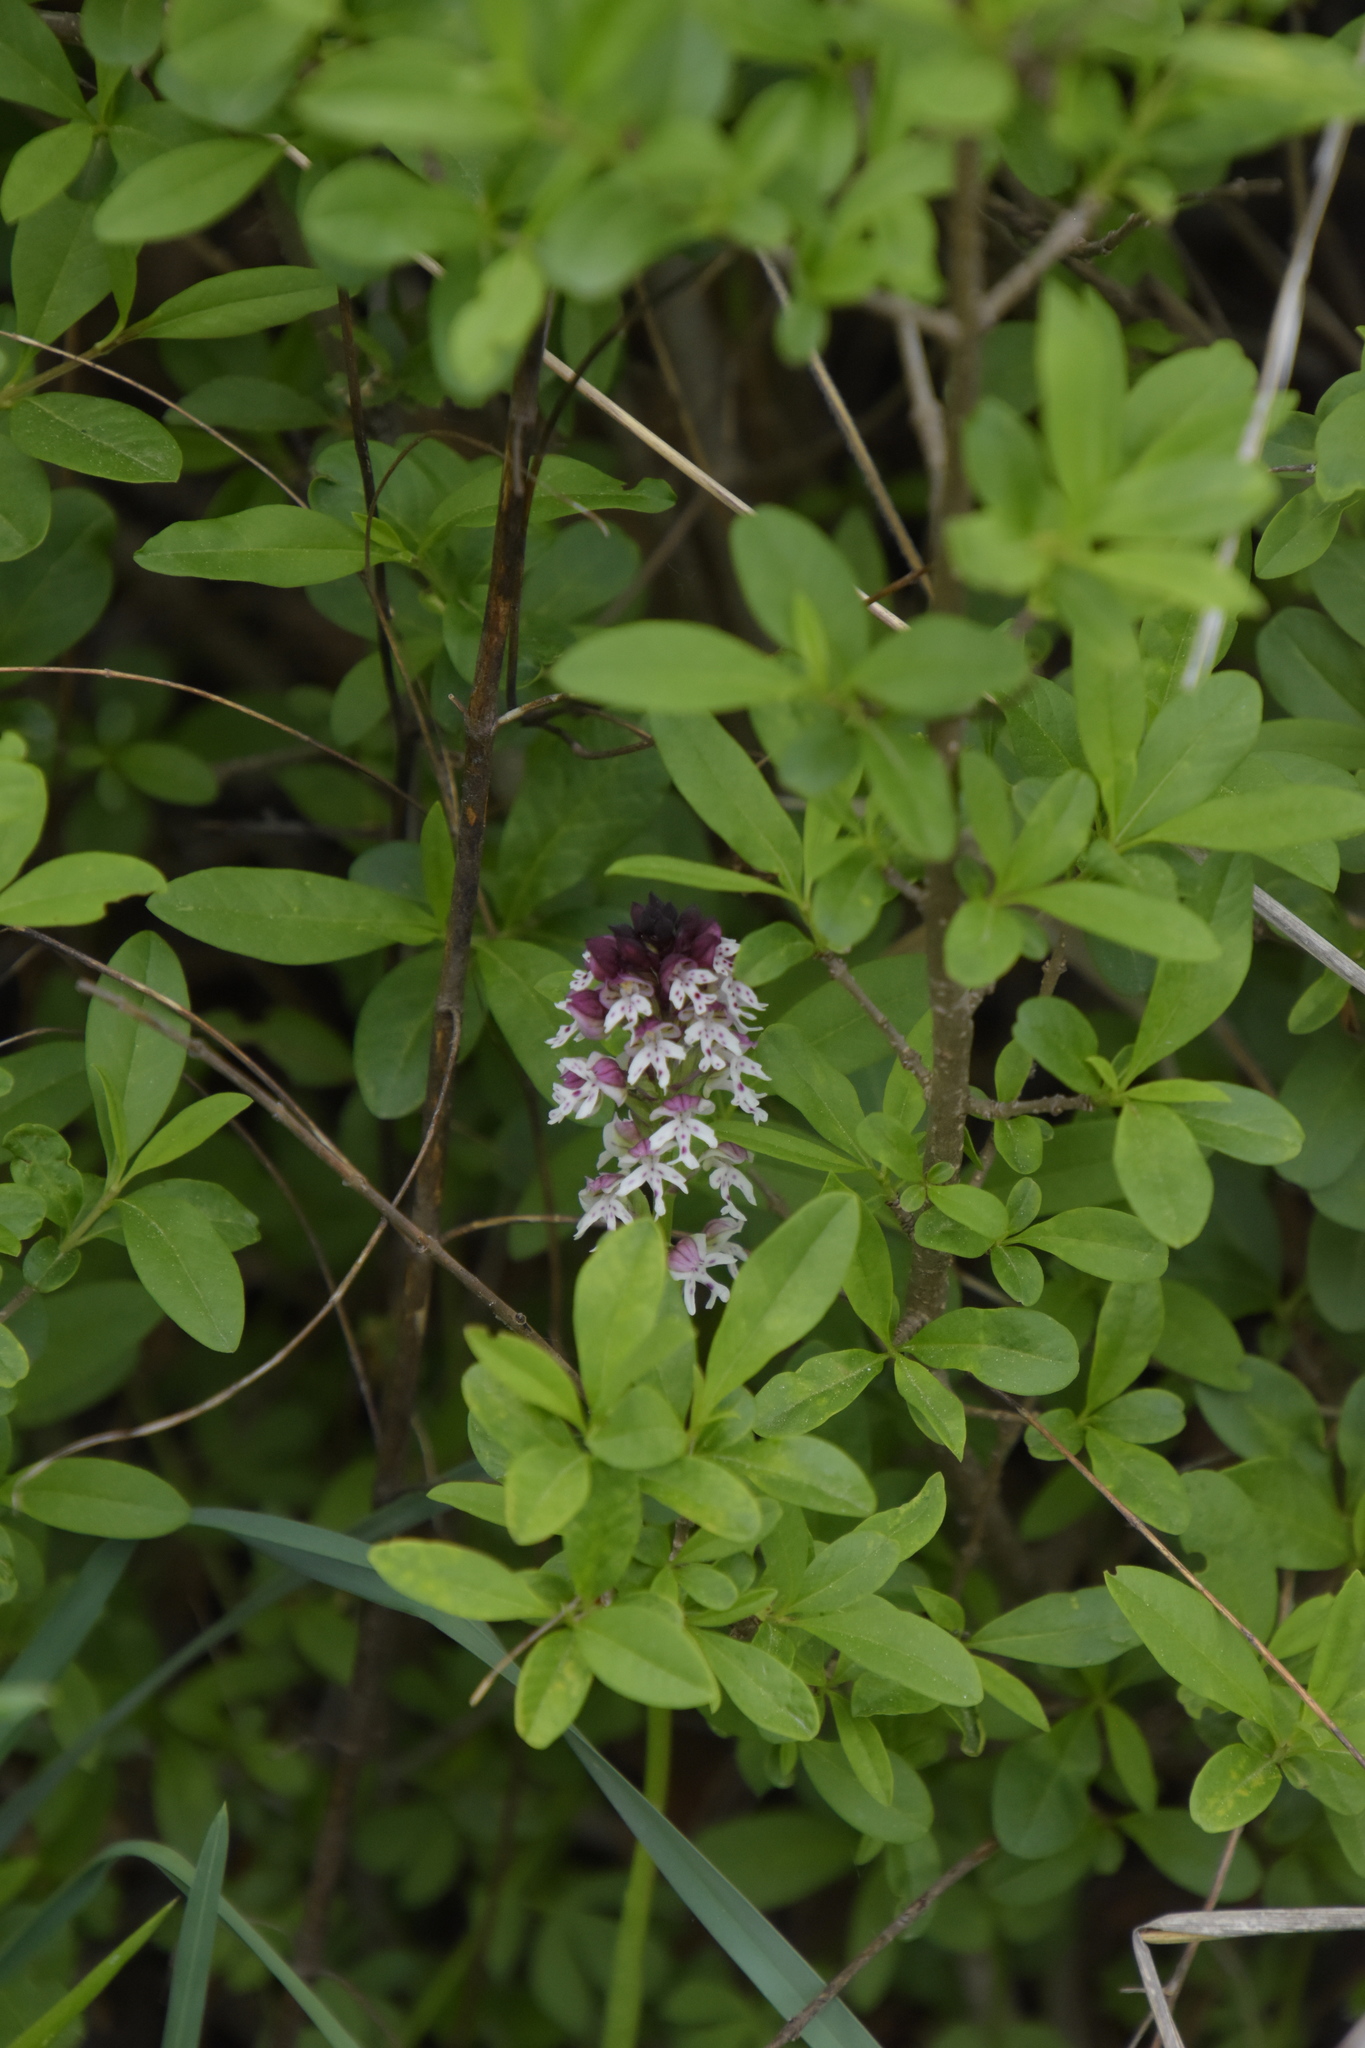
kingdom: Plantae
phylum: Tracheophyta
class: Liliopsida
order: Asparagales
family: Orchidaceae
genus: Neotinea
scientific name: Neotinea ustulata
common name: Burnt orchid
